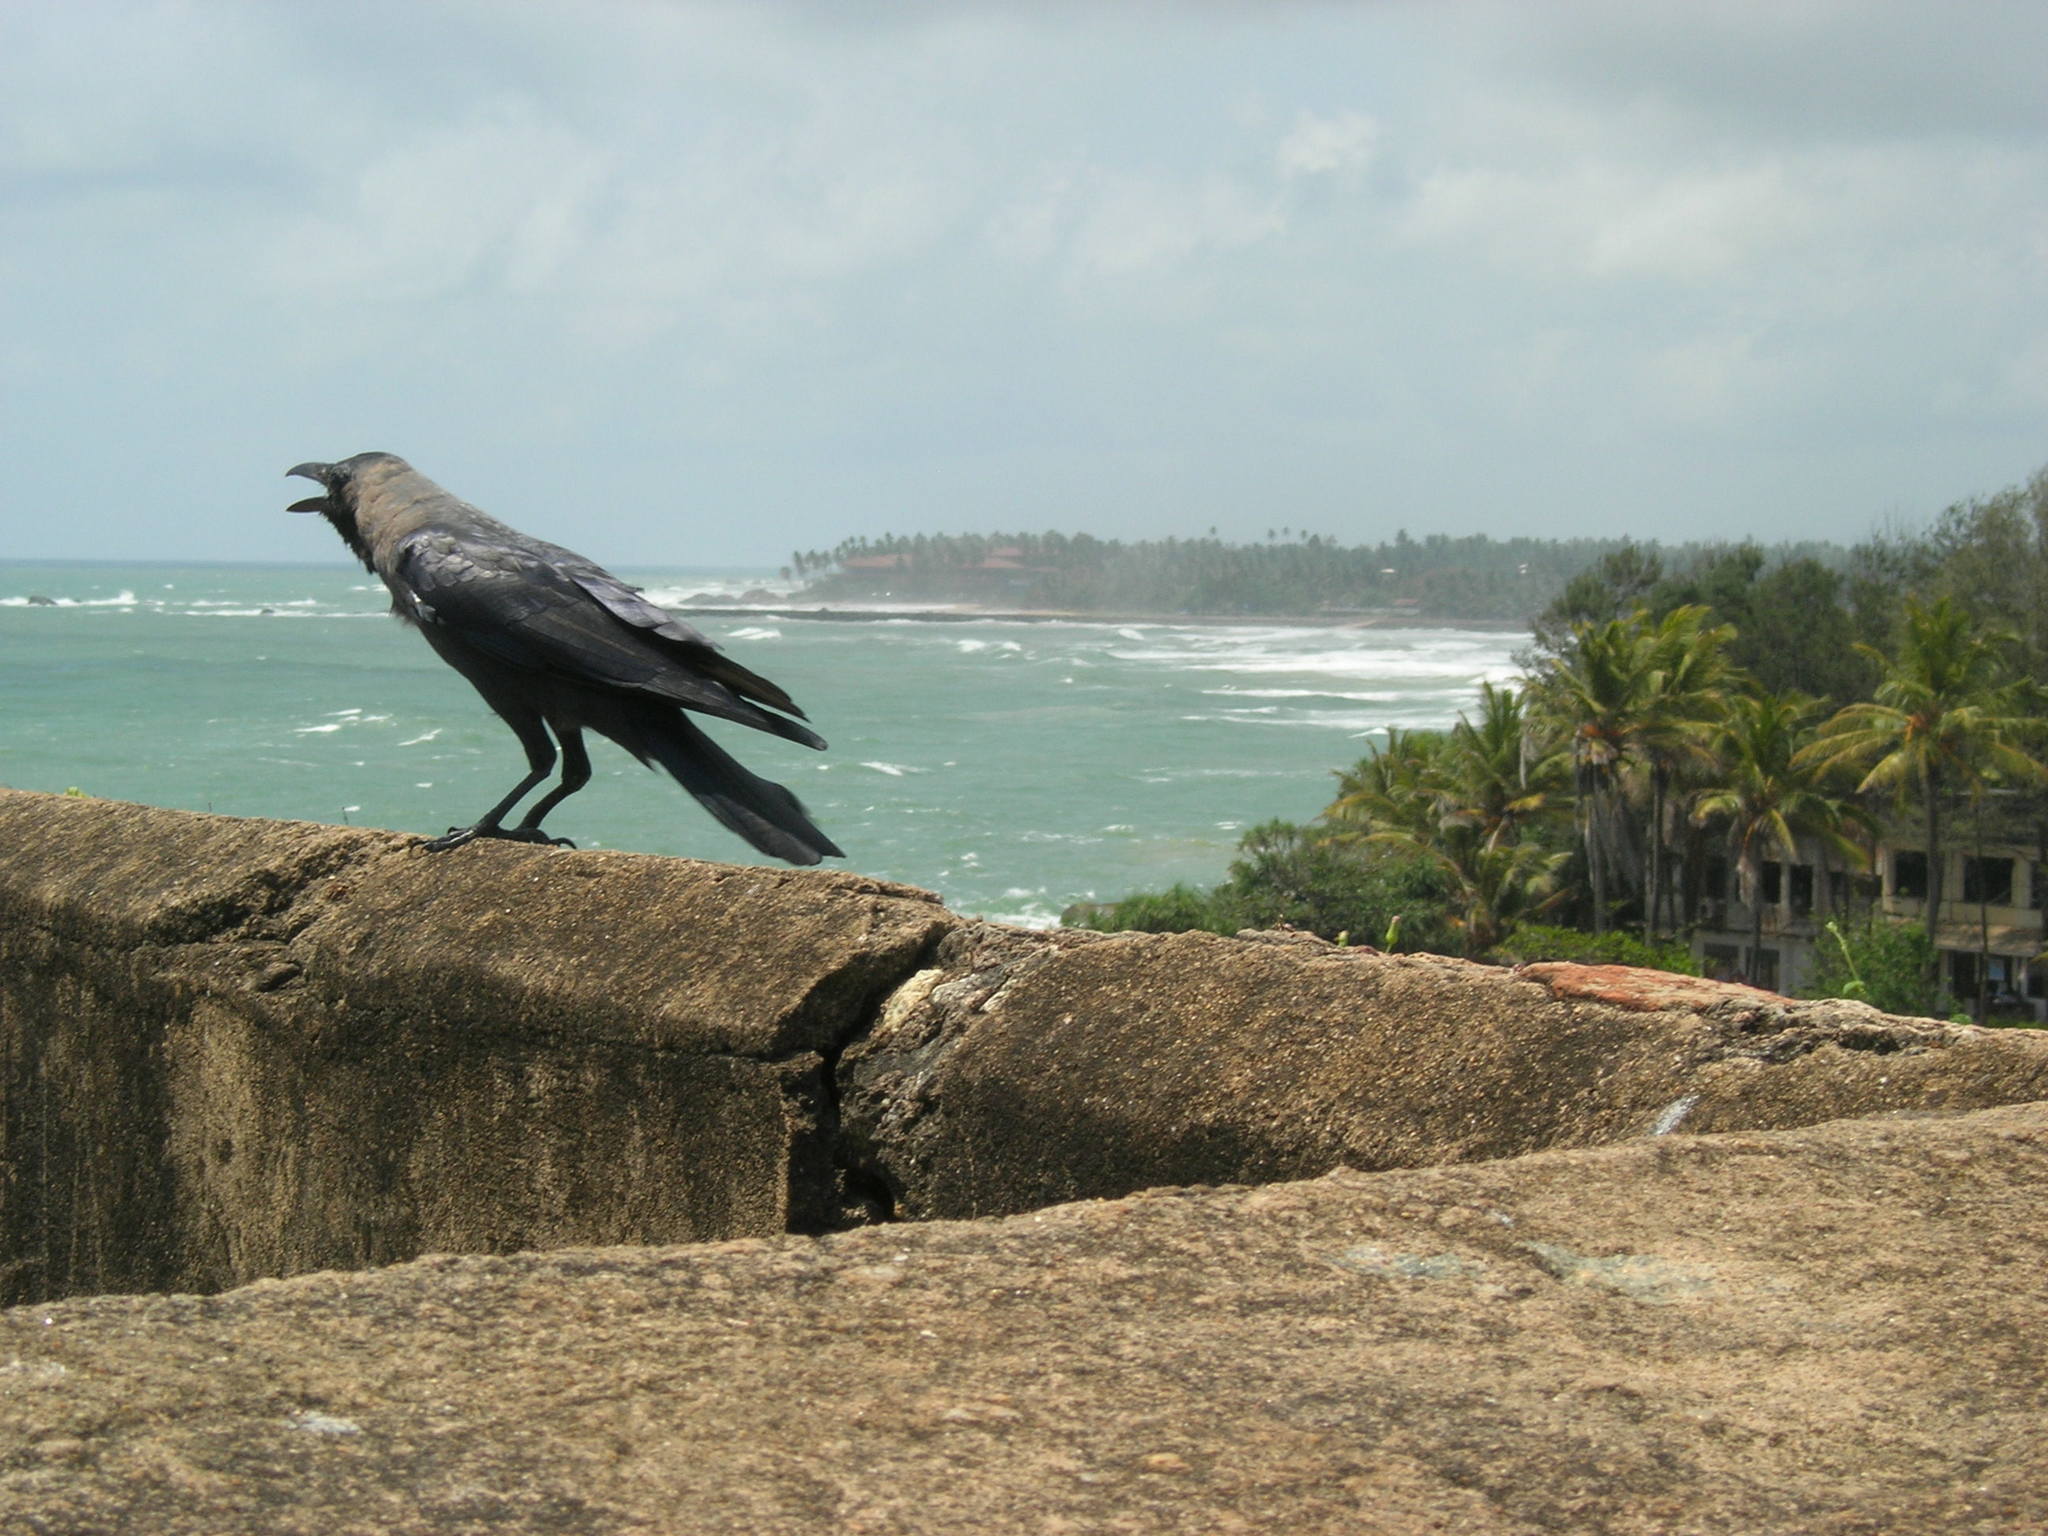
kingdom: Animalia
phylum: Chordata
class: Aves
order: Passeriformes
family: Corvidae
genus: Corvus
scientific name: Corvus splendens
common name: House crow
